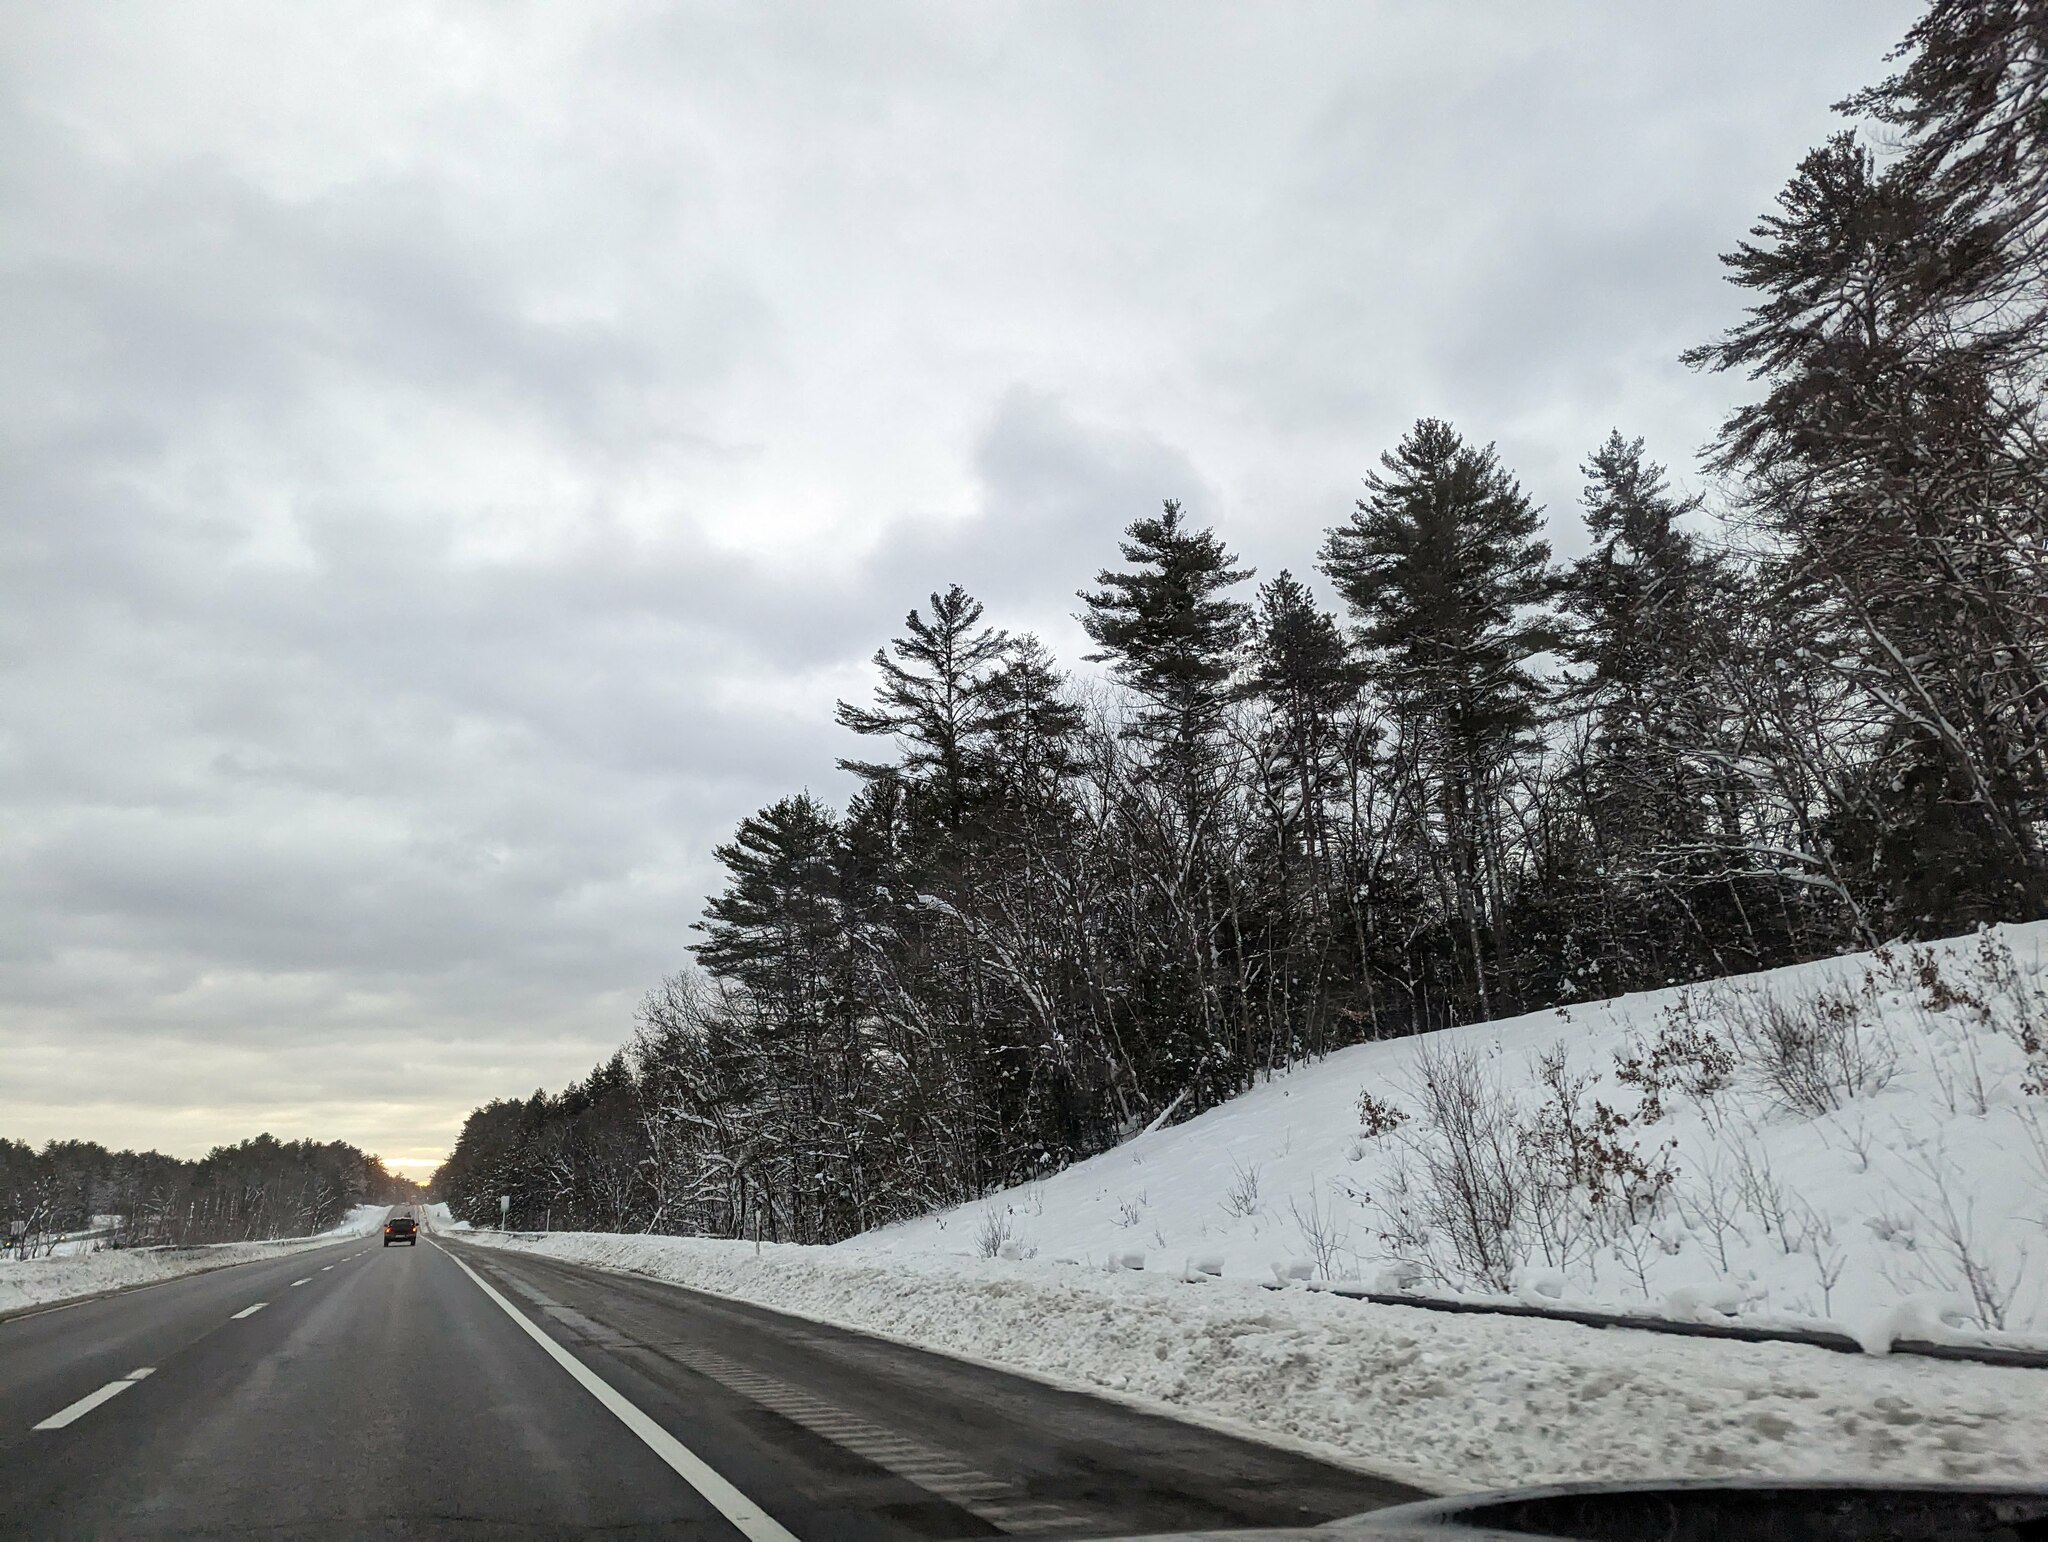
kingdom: Plantae
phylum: Tracheophyta
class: Pinopsida
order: Pinales
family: Pinaceae
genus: Pinus
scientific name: Pinus strobus
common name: Weymouth pine
